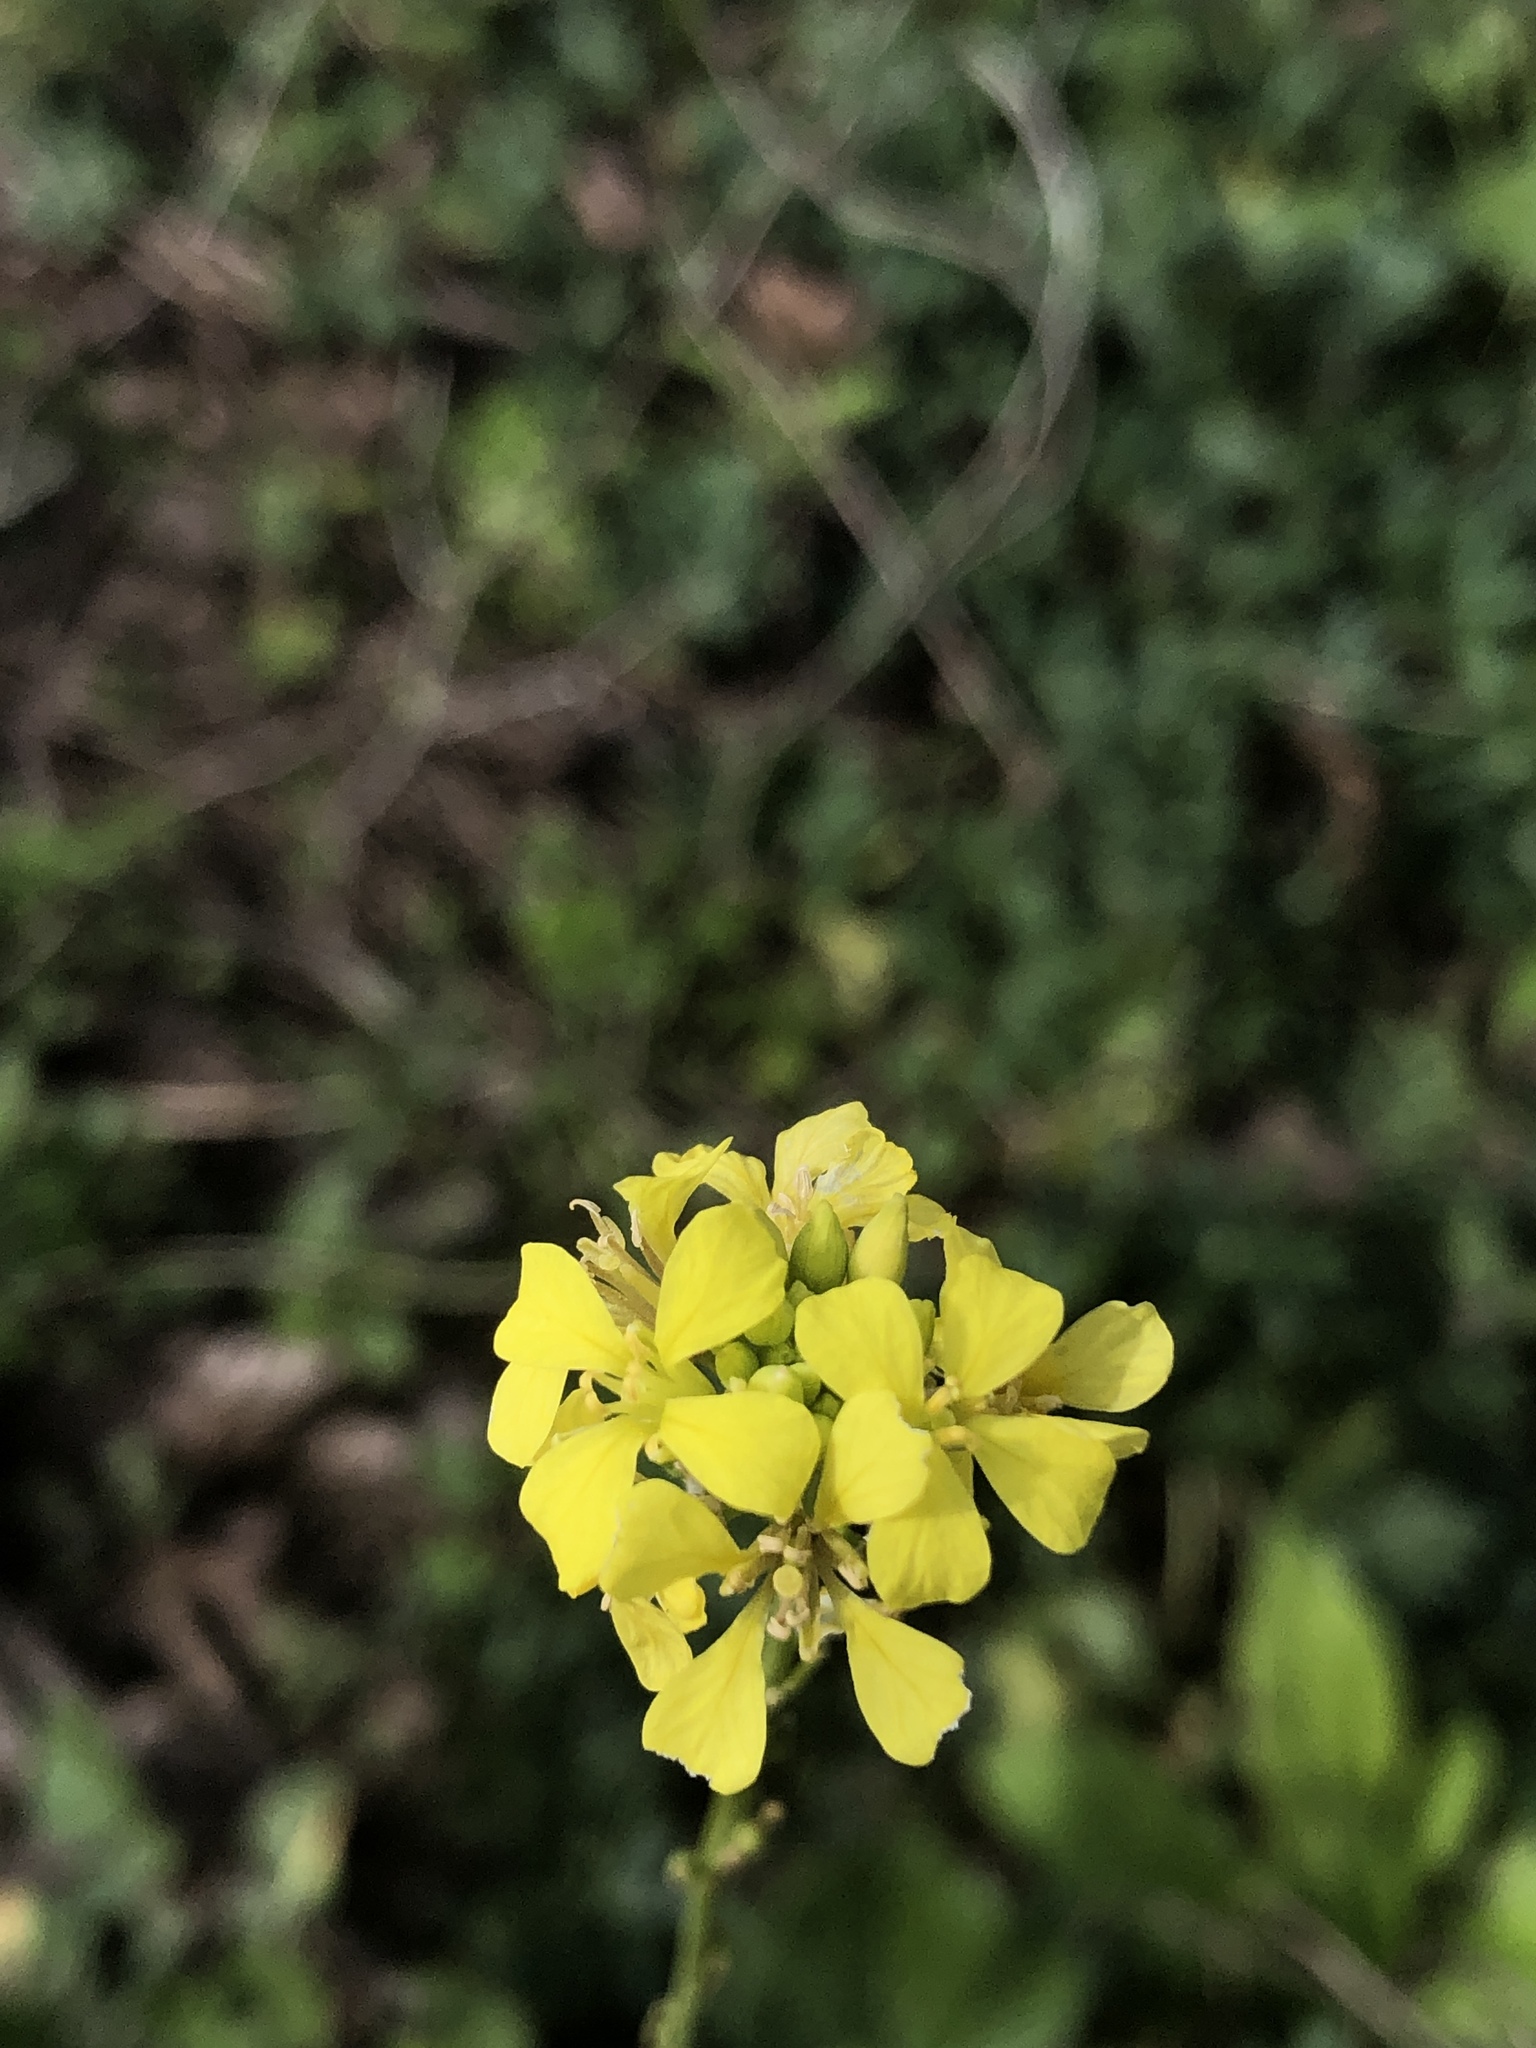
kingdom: Plantae
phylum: Tracheophyta
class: Magnoliopsida
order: Brassicales
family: Brassicaceae
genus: Rapistrum
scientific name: Rapistrum rugosum
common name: Annual bastardcabbage
